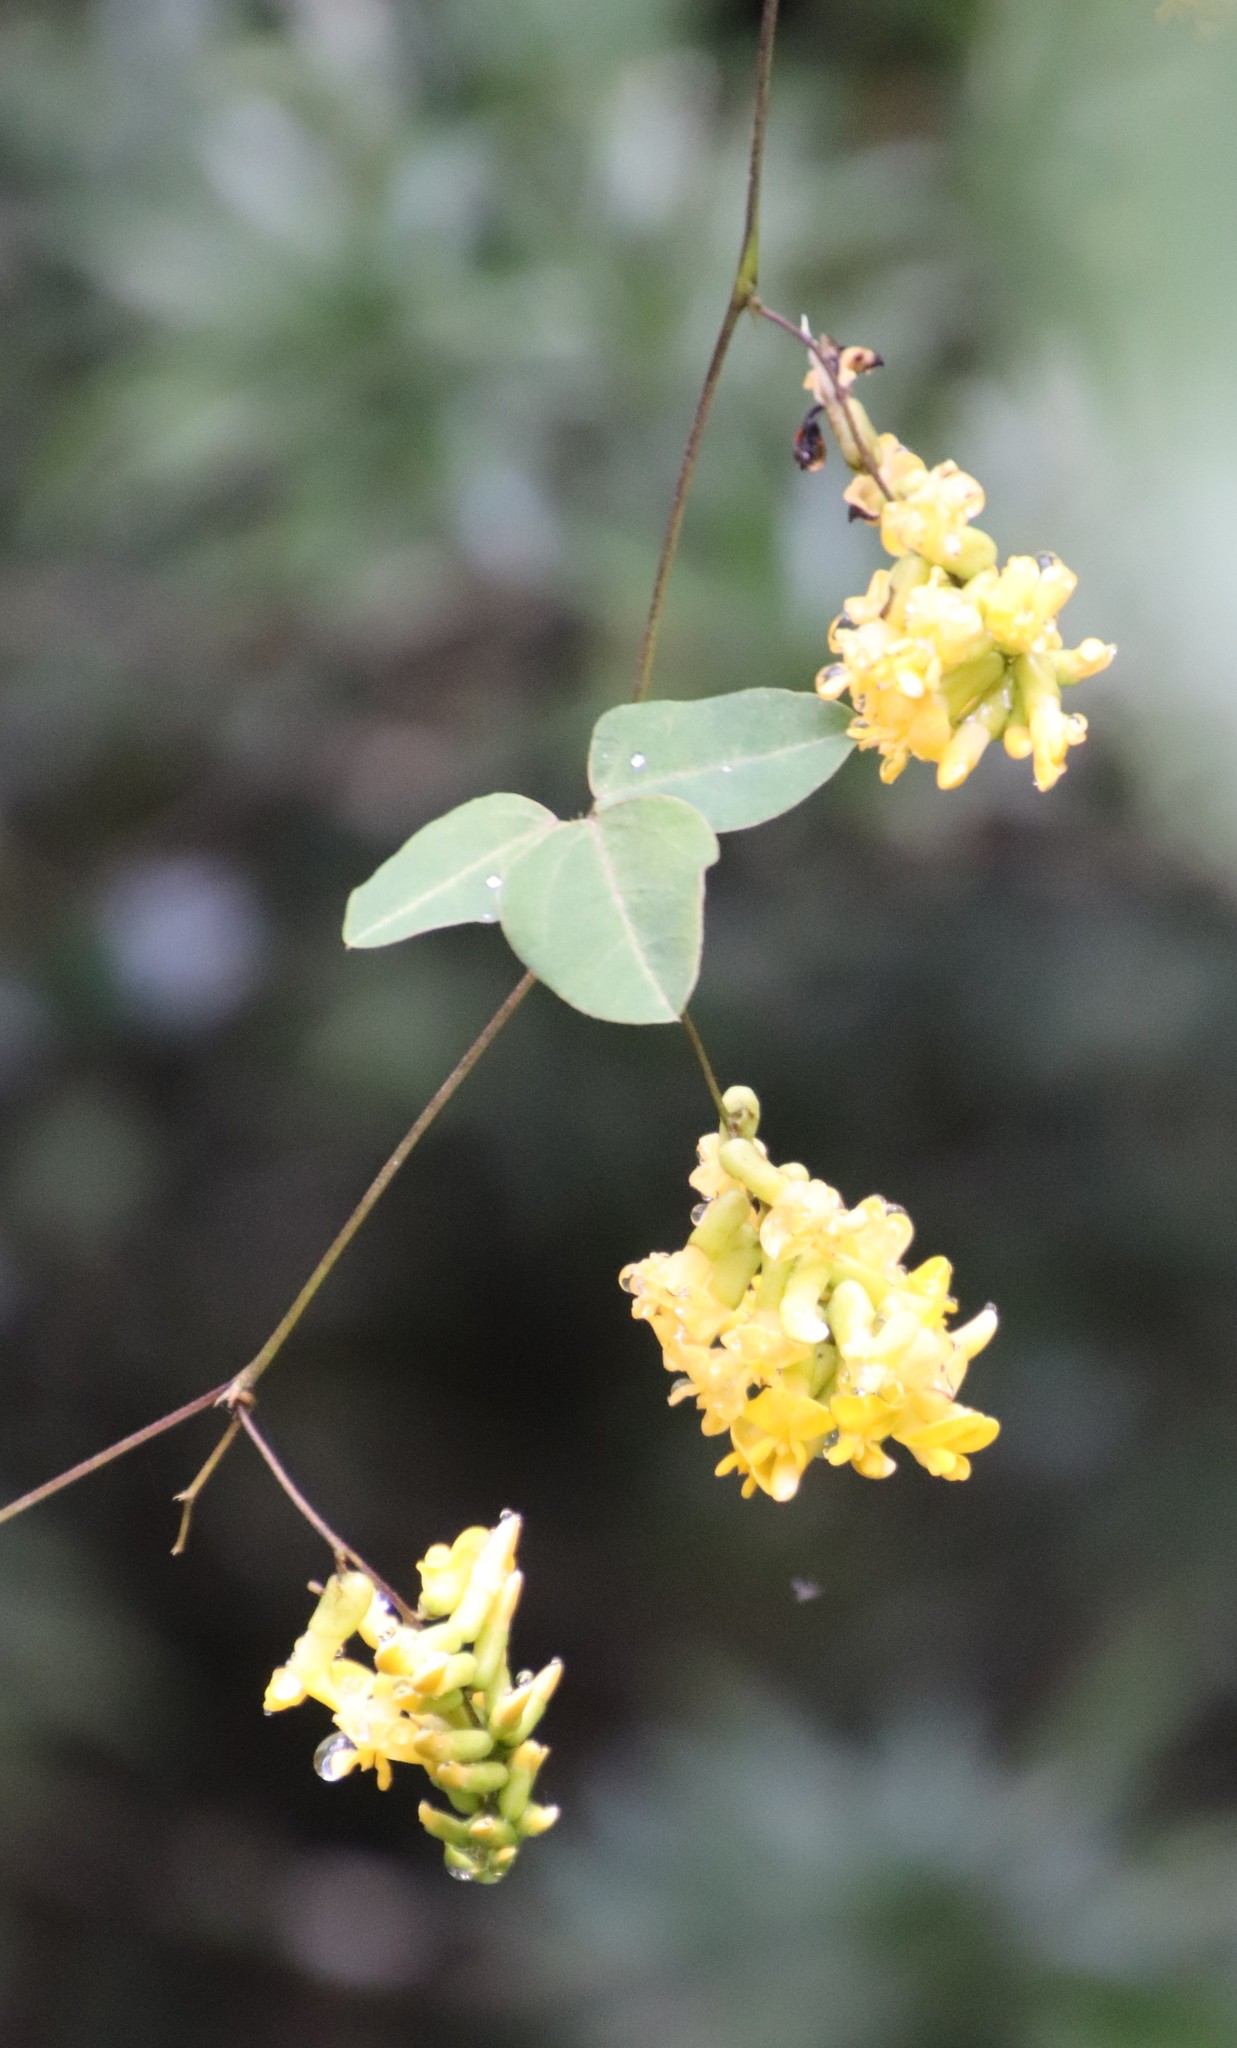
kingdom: Plantae
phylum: Tracheophyta
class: Magnoliopsida
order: Fabales
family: Fabaceae
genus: Dumasia
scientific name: Dumasia villosa
